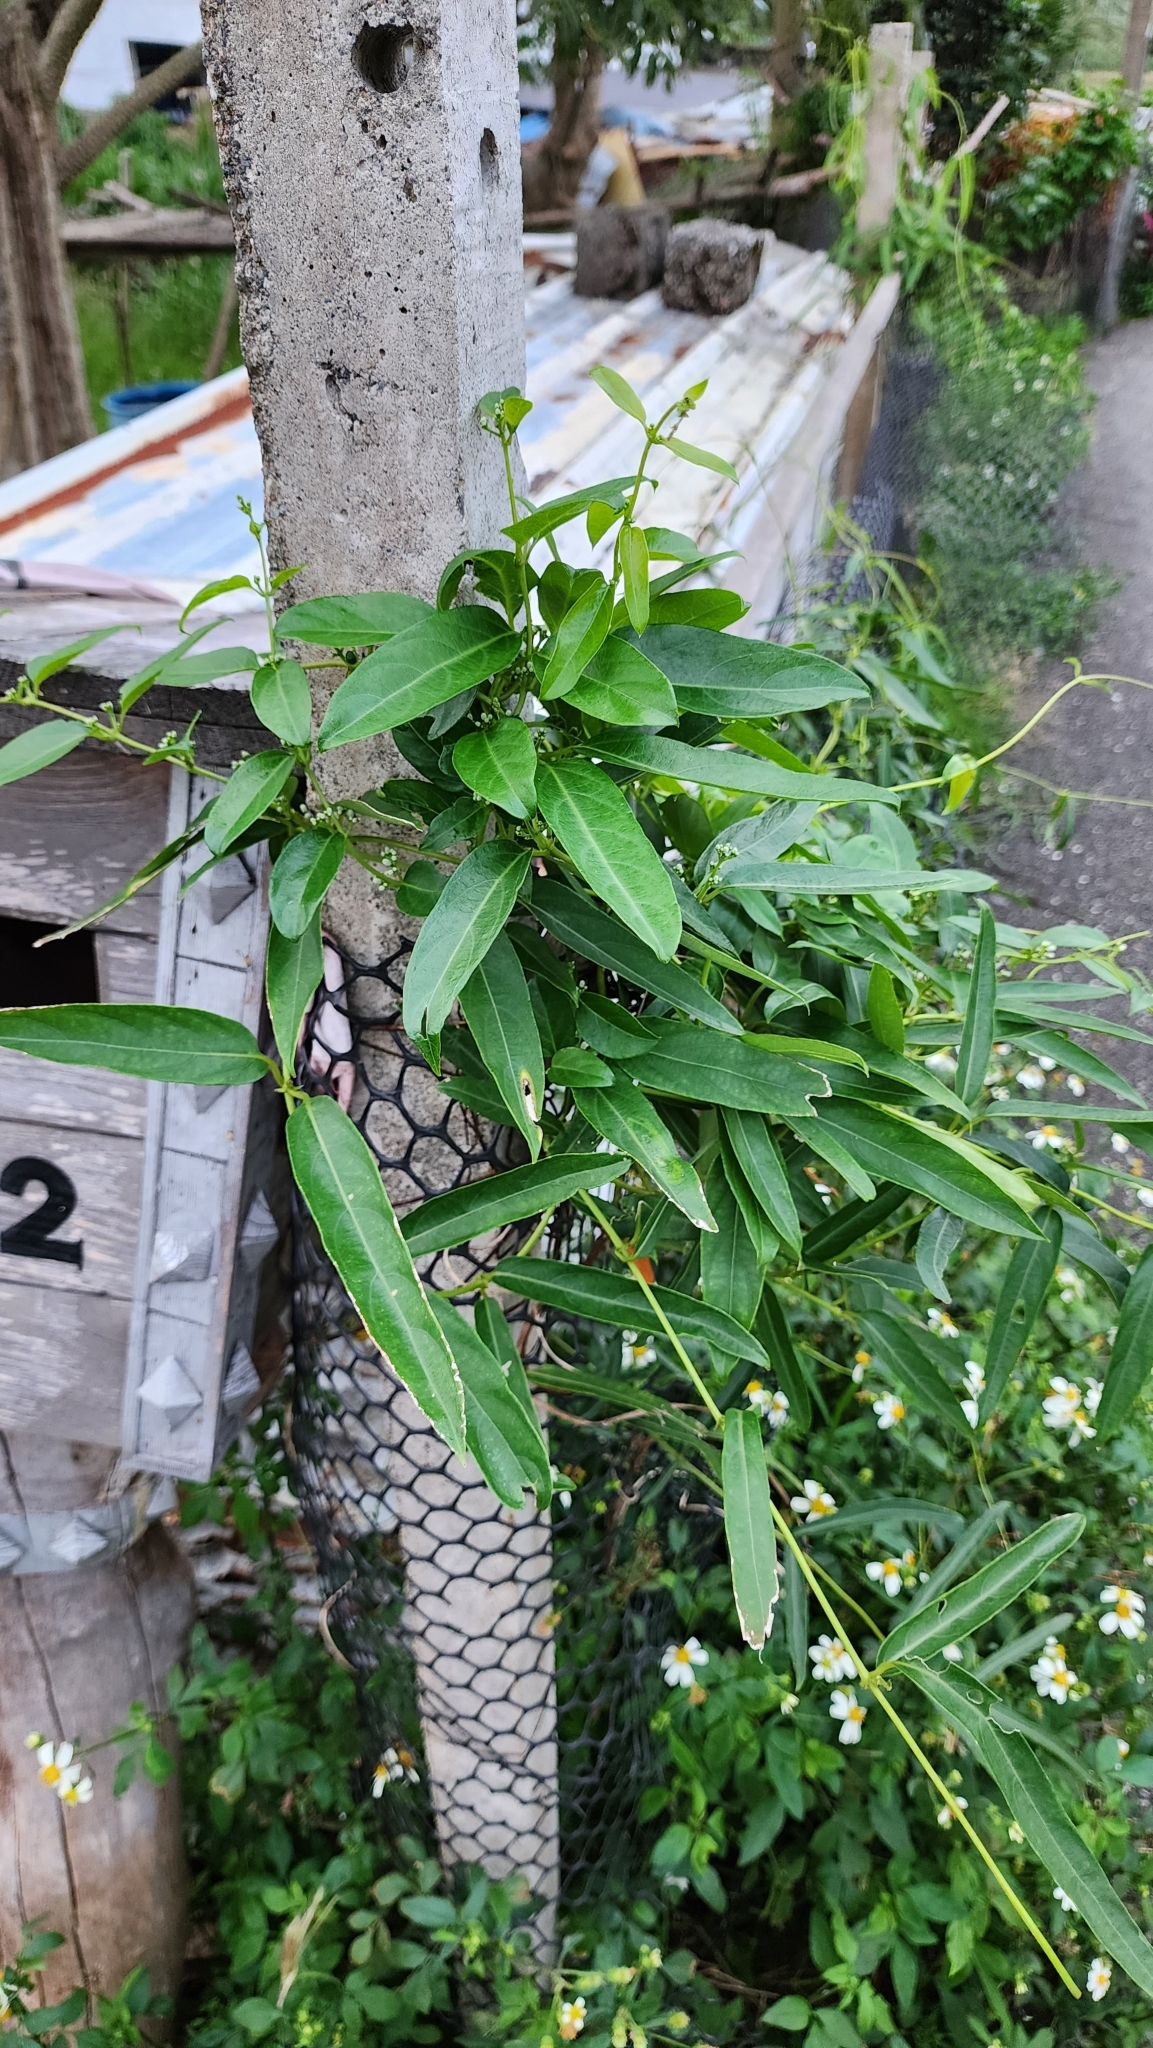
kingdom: Plantae
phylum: Tracheophyta
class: Magnoliopsida
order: Gentianales
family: Rubiaceae
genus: Paederia
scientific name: Paederia foetida
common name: Stinkvine
